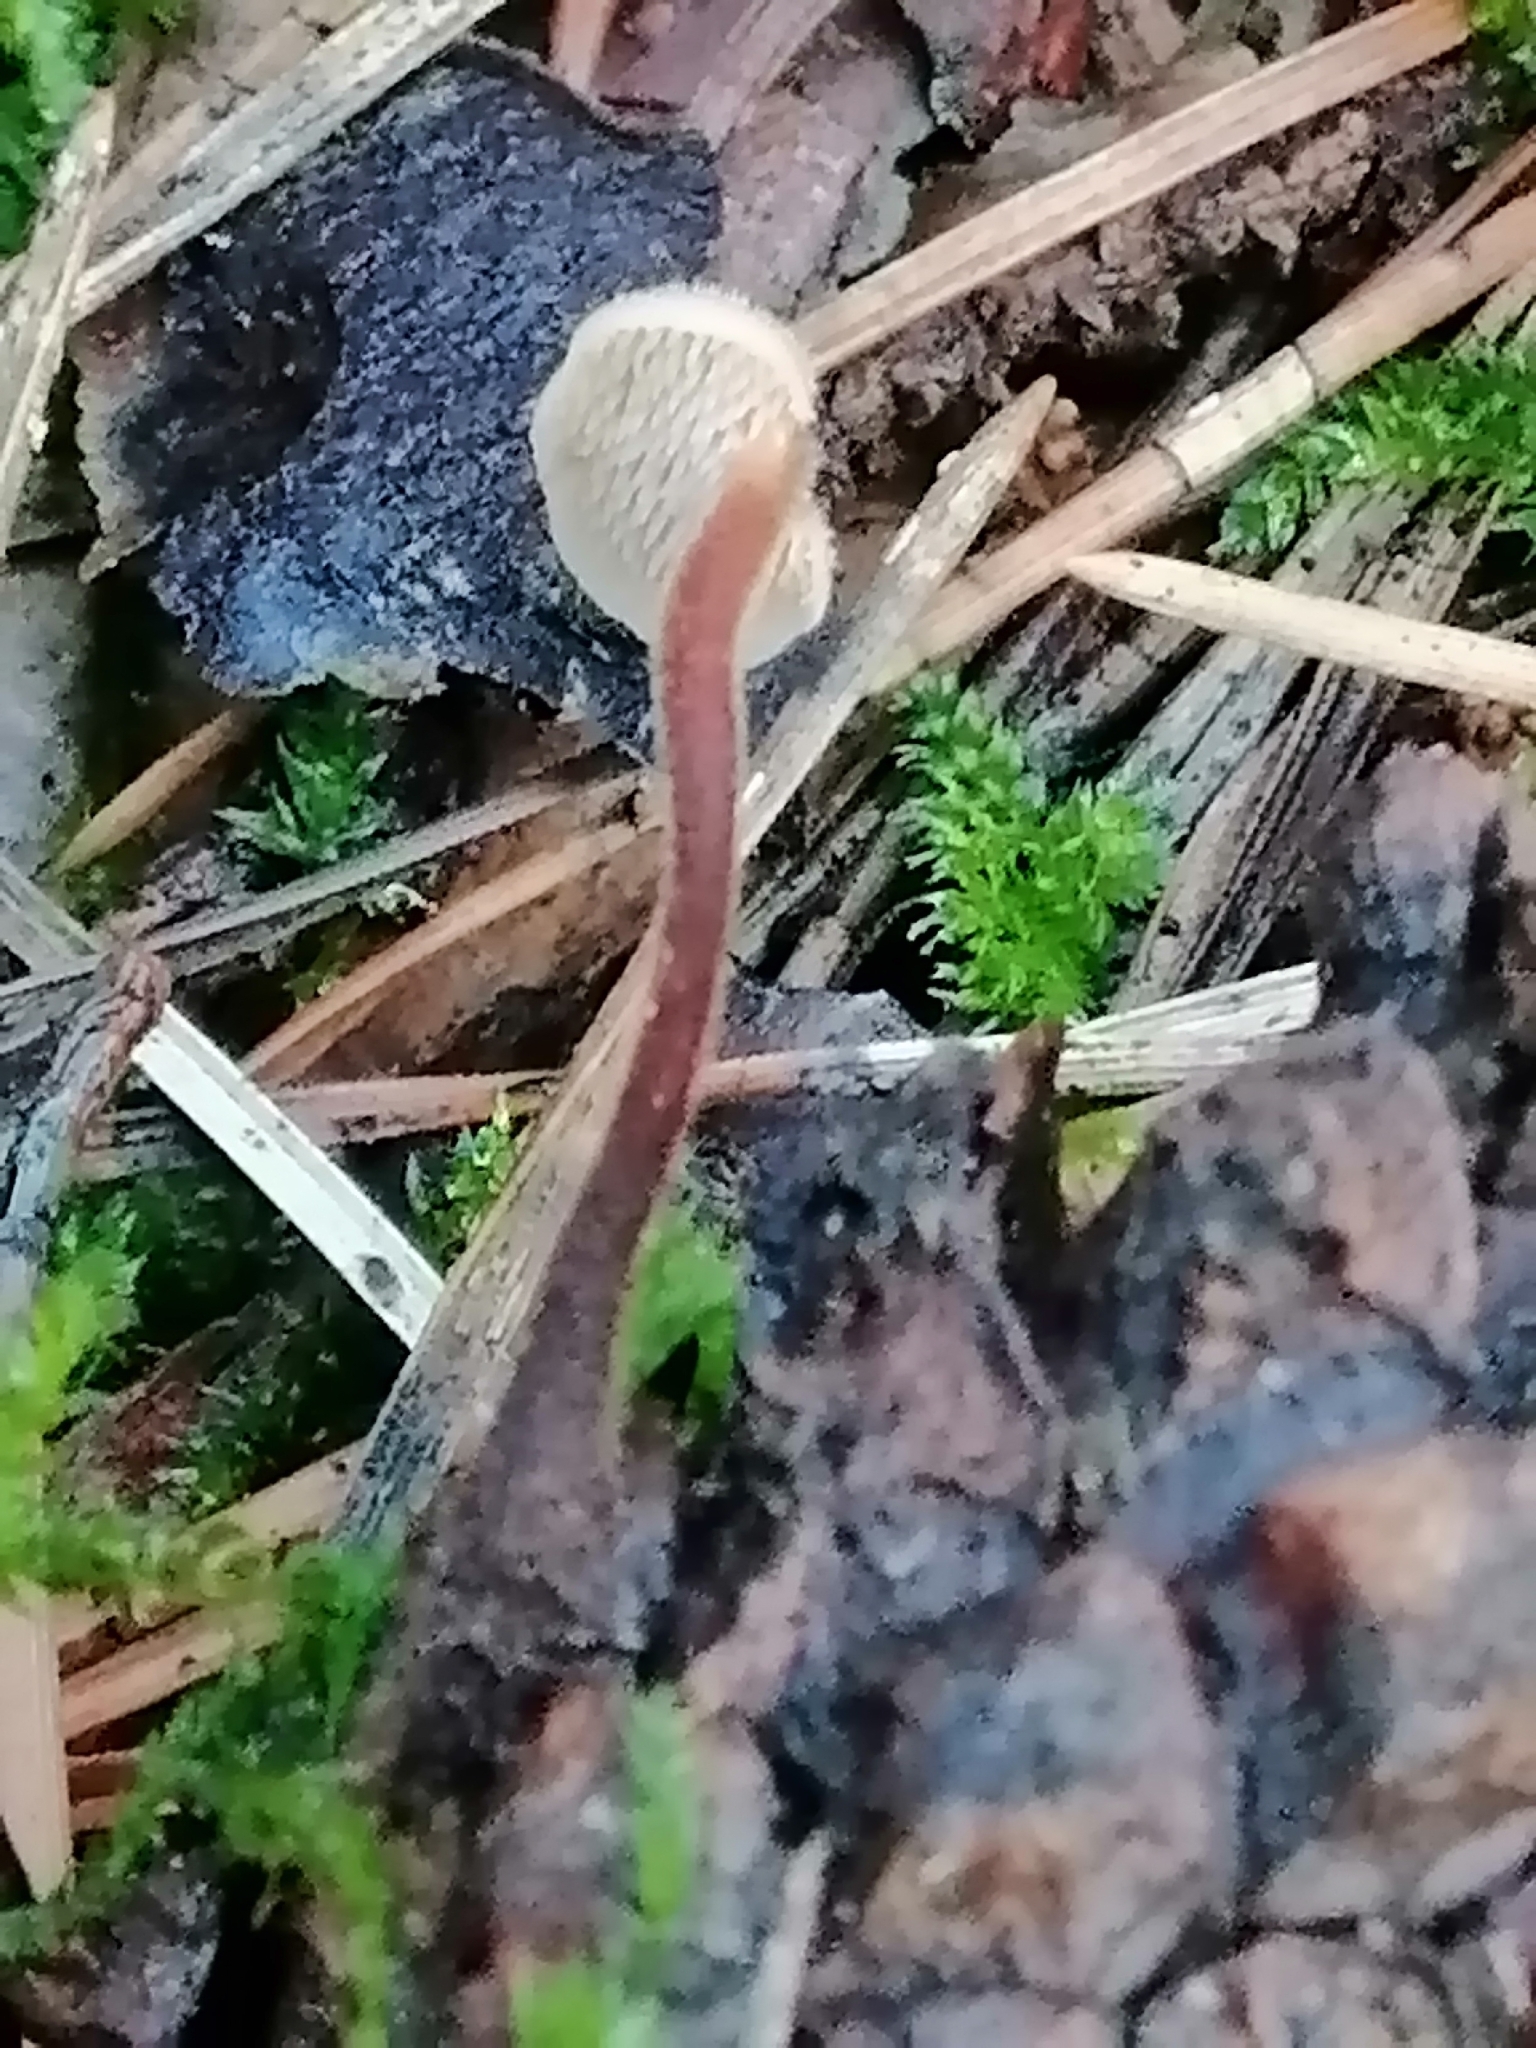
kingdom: Fungi
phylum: Basidiomycota
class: Agaricomycetes
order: Russulales
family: Auriscalpiaceae
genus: Auriscalpium
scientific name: Auriscalpium vulgare
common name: Earpick fungus
